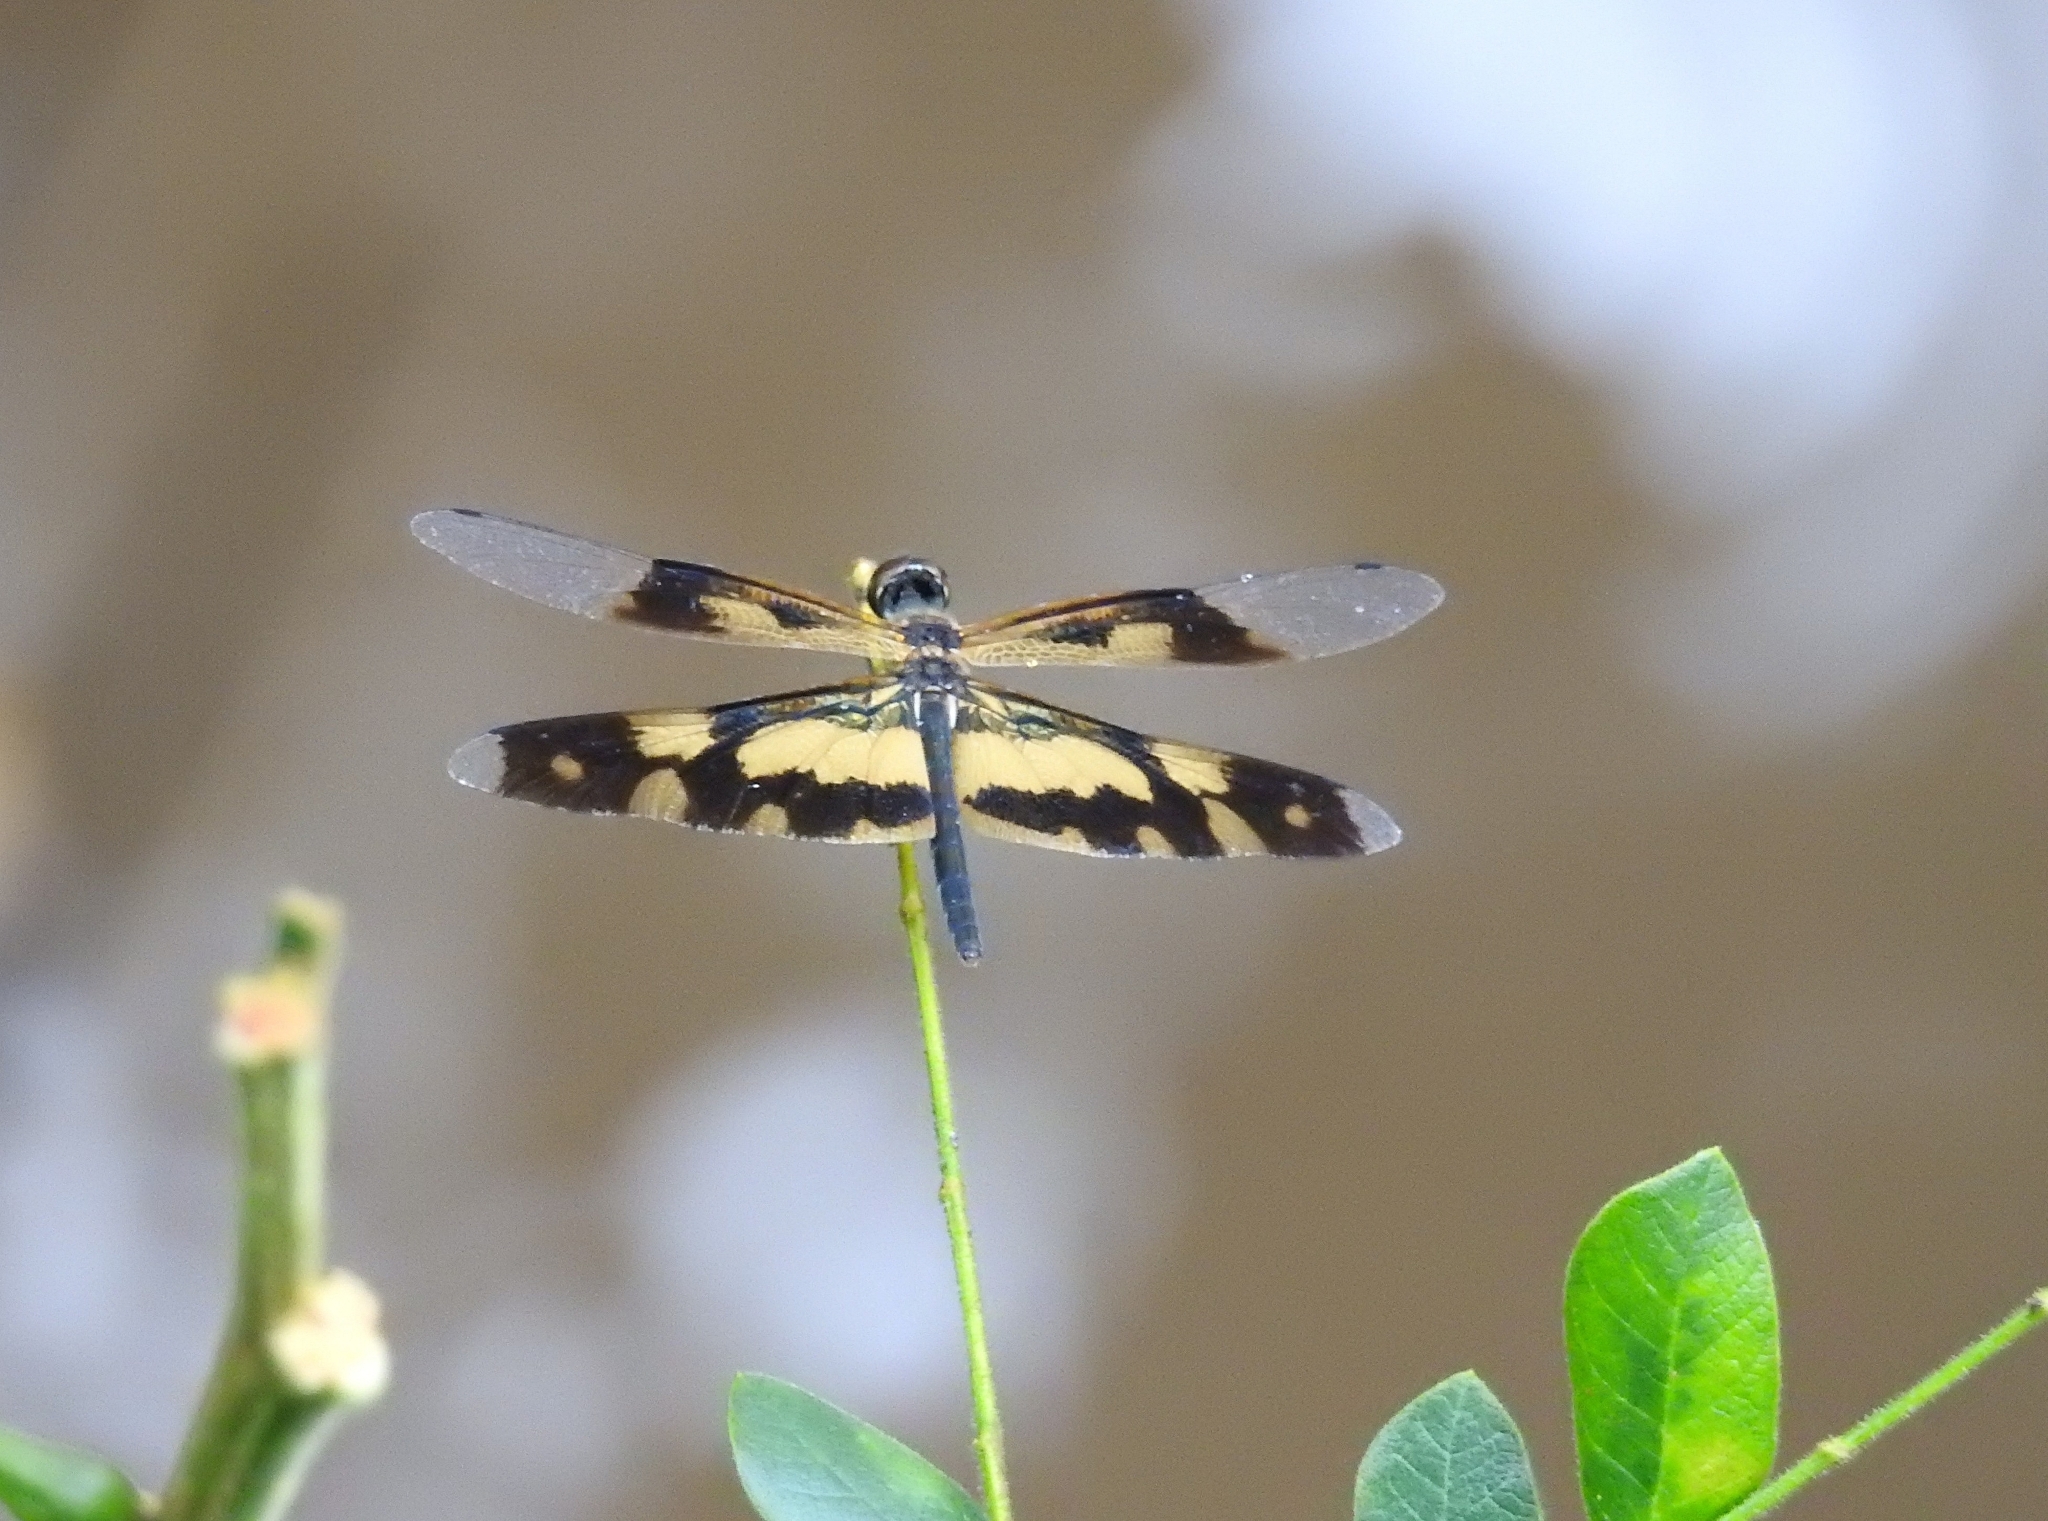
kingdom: Animalia
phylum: Arthropoda
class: Insecta
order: Odonata
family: Libellulidae
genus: Rhyothemis
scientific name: Rhyothemis variegata
